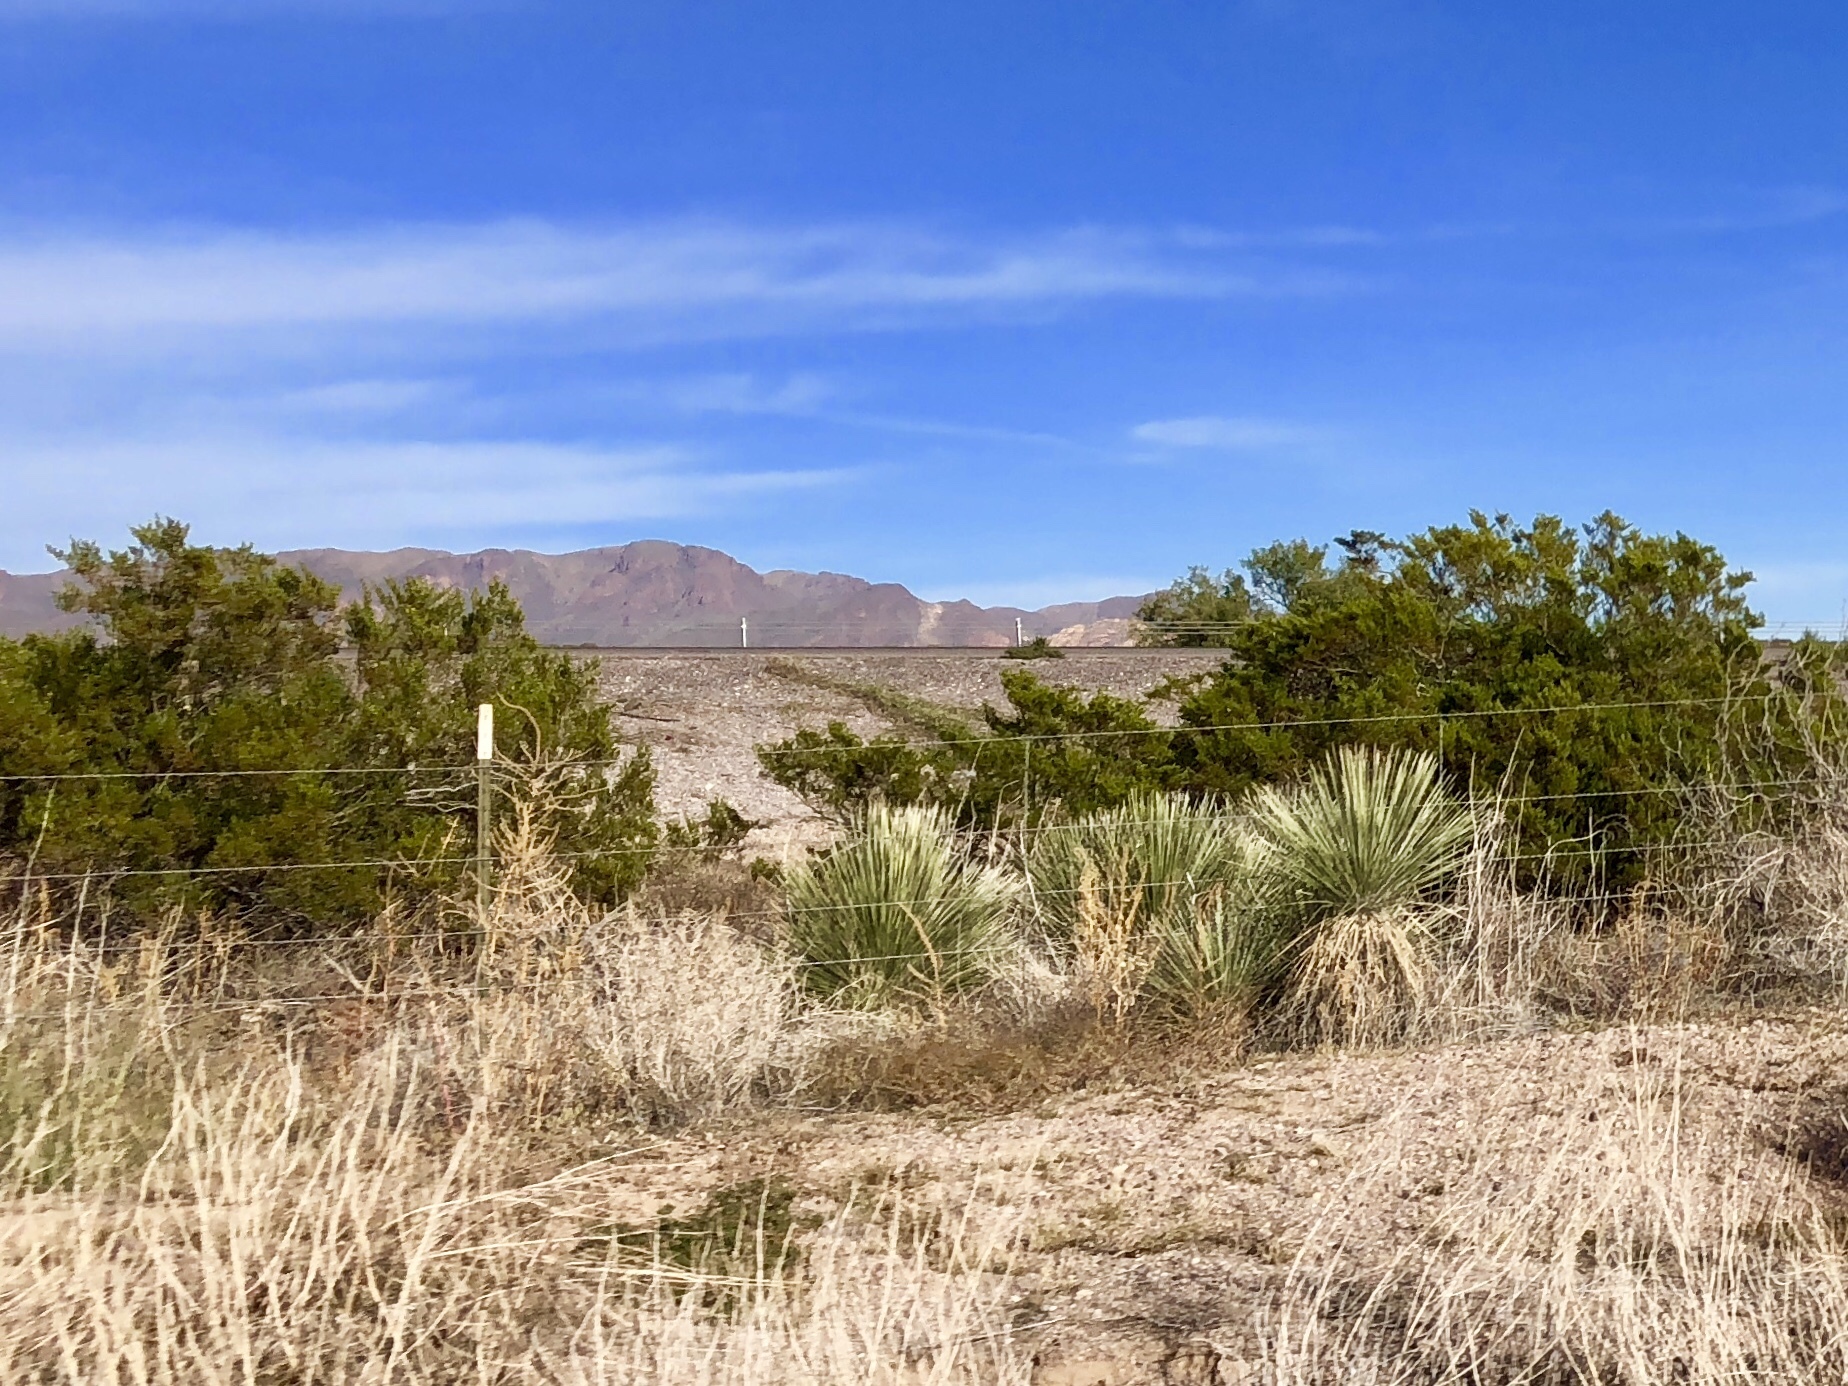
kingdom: Plantae
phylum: Tracheophyta
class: Magnoliopsida
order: Zygophyllales
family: Zygophyllaceae
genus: Larrea
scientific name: Larrea tridentata
